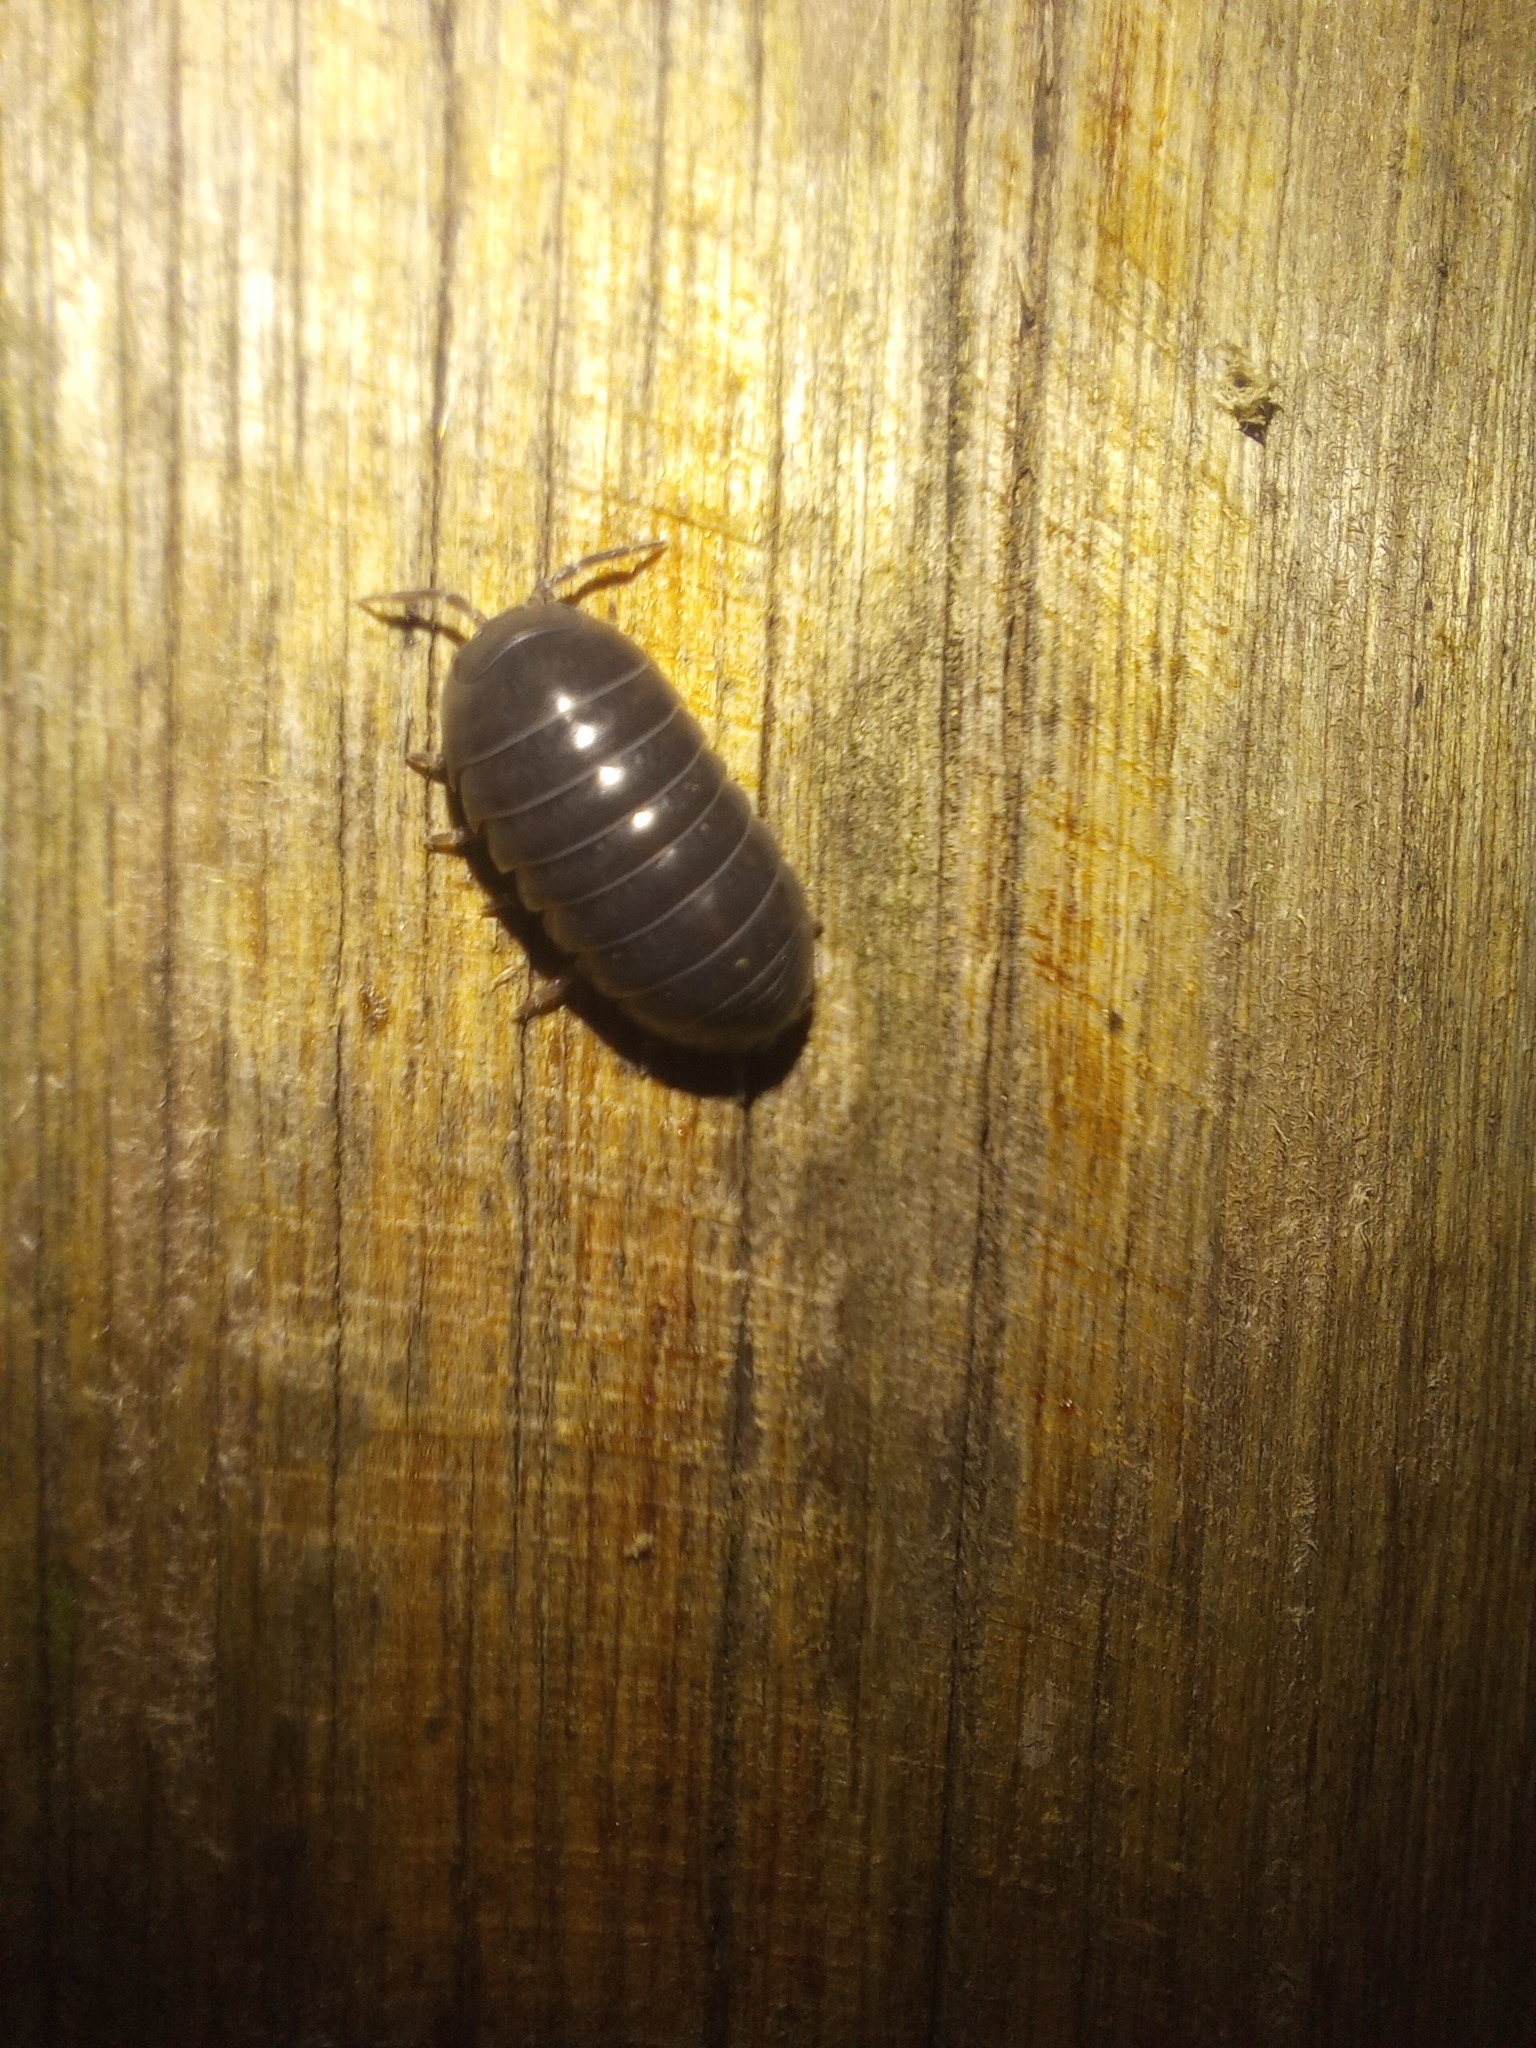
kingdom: Animalia
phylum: Arthropoda
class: Malacostraca
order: Isopoda
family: Armadillidiidae
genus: Armadillidium
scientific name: Armadillidium vulgare
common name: Common pill woodlouse
